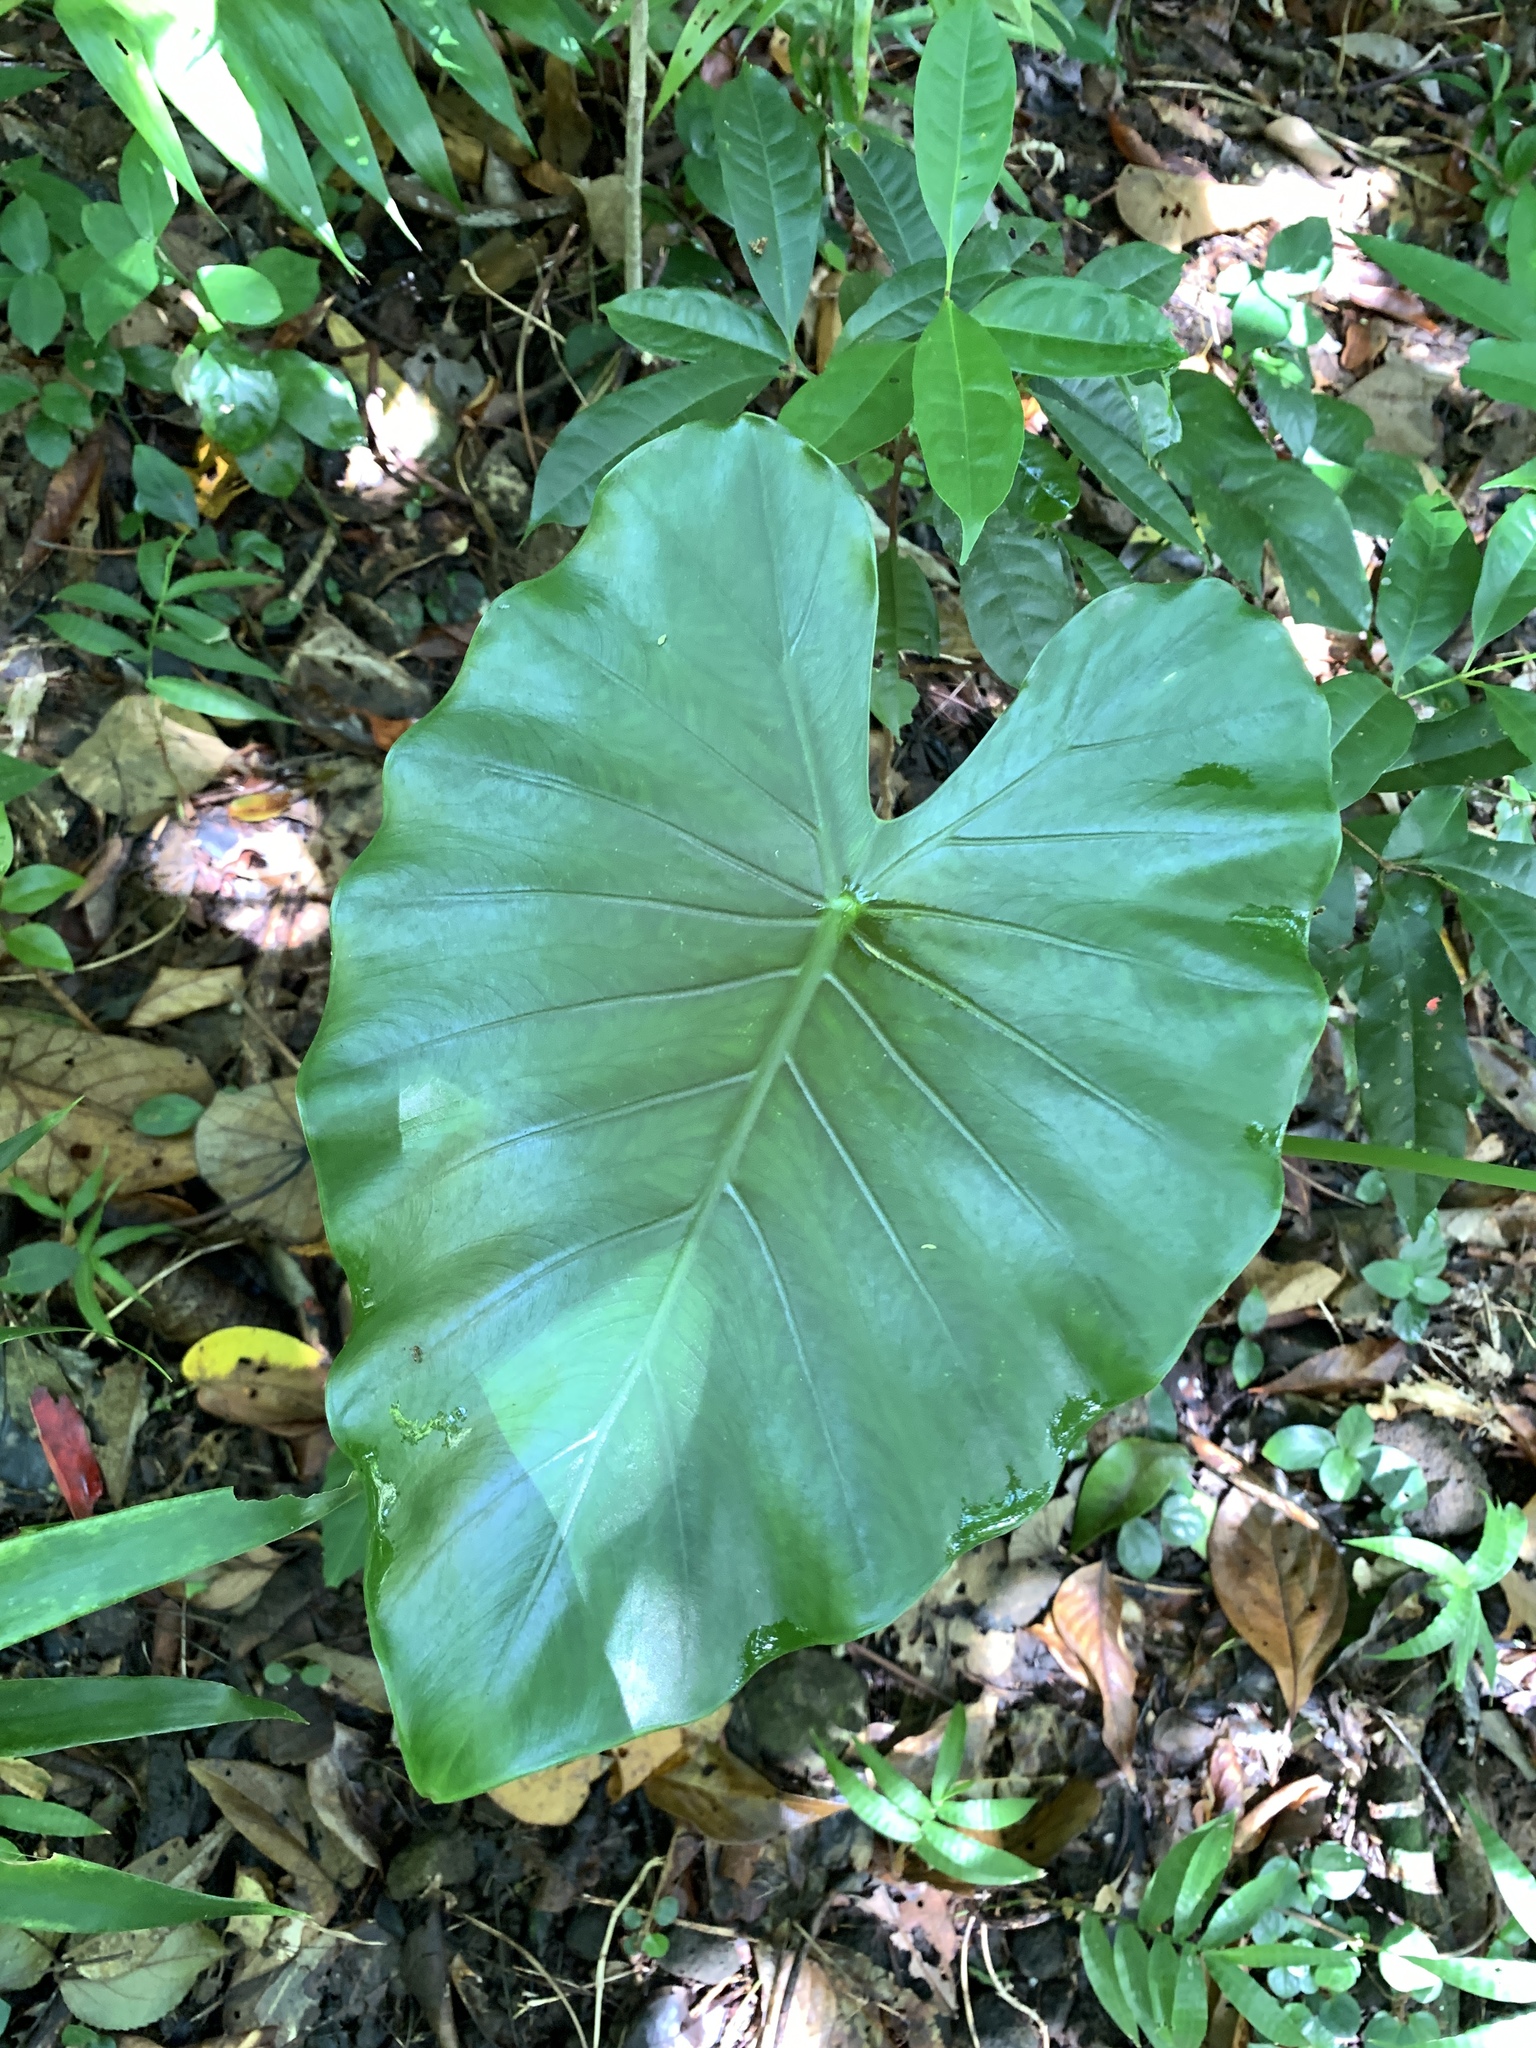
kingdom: Plantae
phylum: Tracheophyta
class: Liliopsida
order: Alismatales
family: Araceae
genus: Alocasia
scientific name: Alocasia odora
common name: Asian taro
